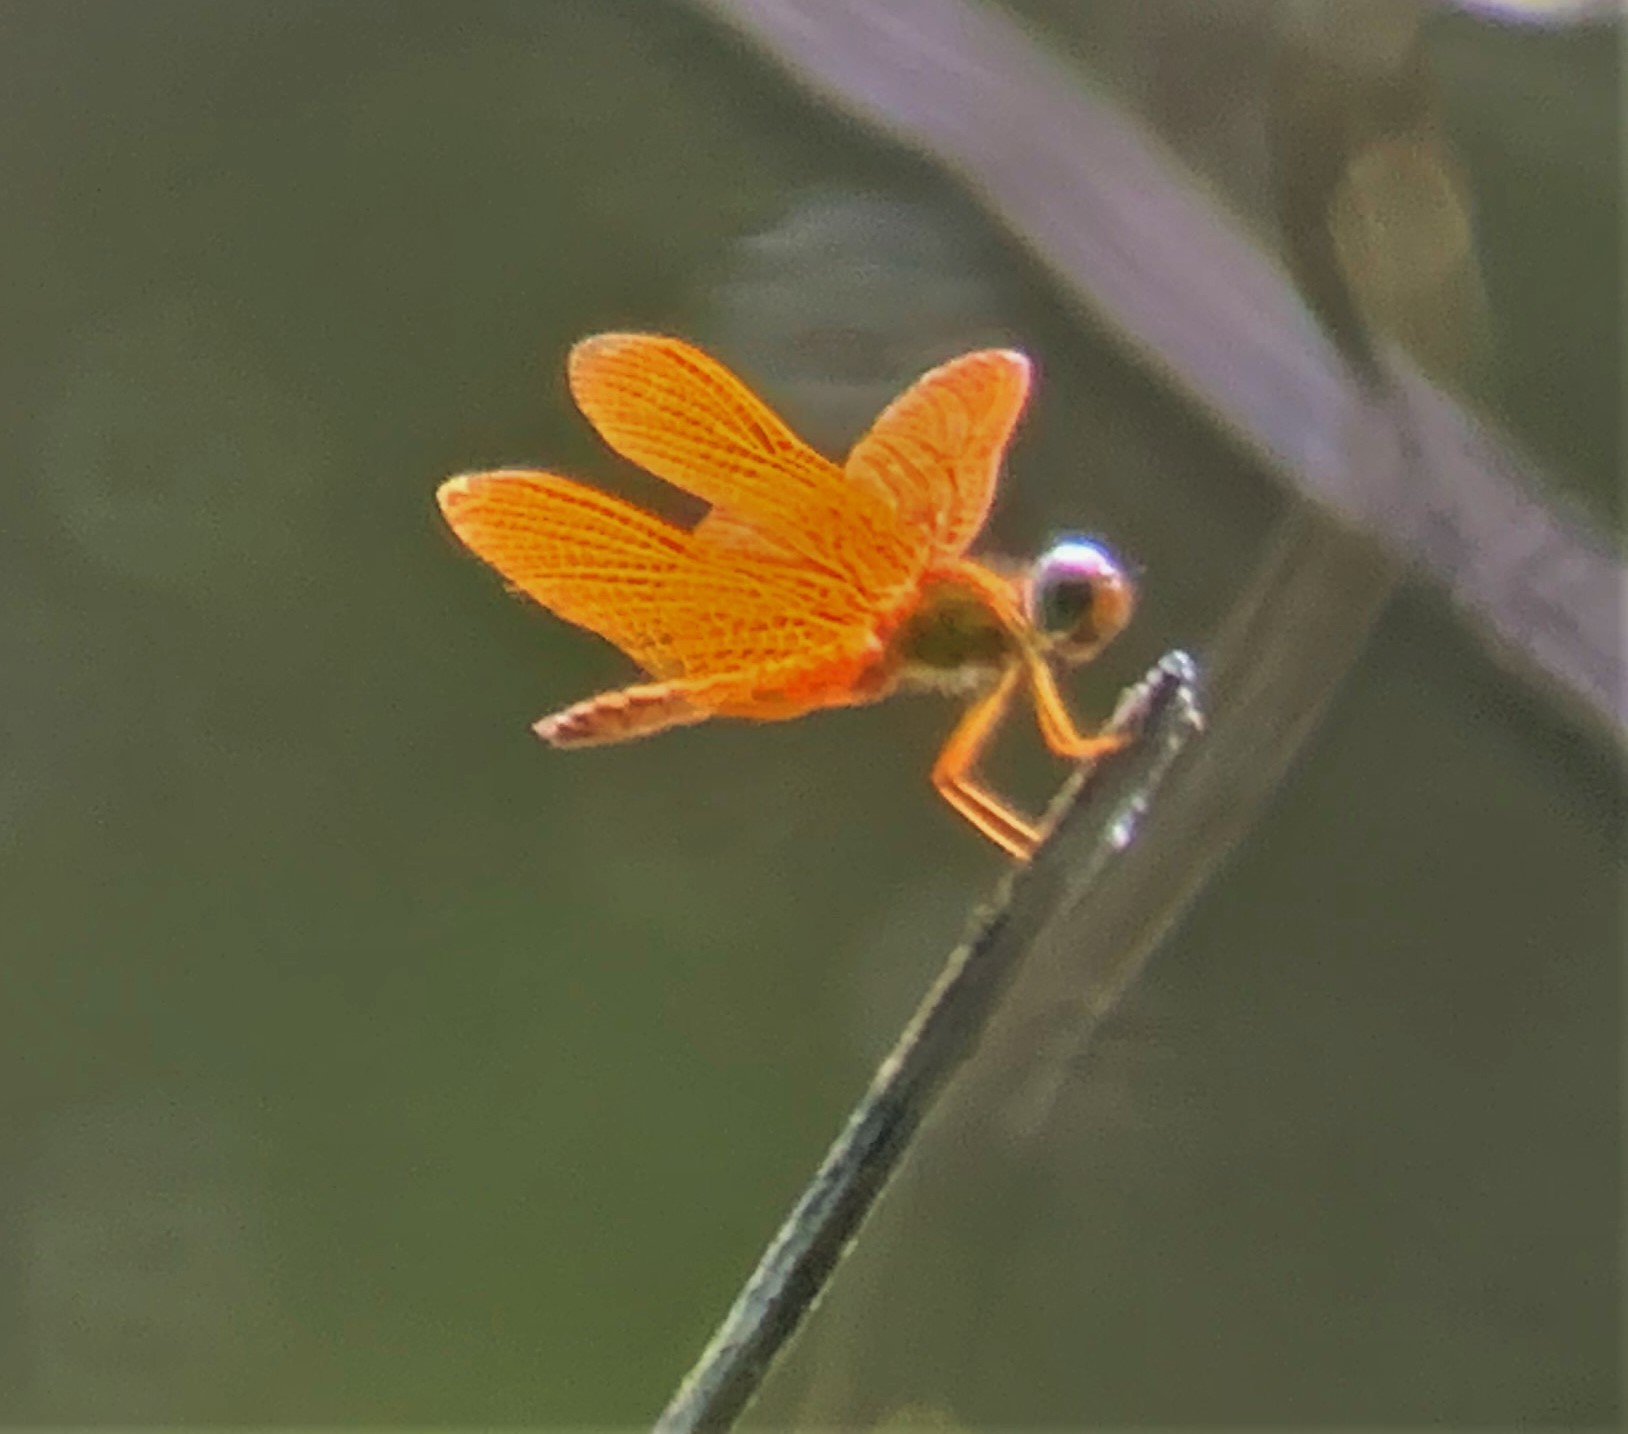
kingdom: Animalia
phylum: Arthropoda
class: Insecta
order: Odonata
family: Libellulidae
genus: Perithemis
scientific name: Perithemis electra
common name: Golden amberwing
